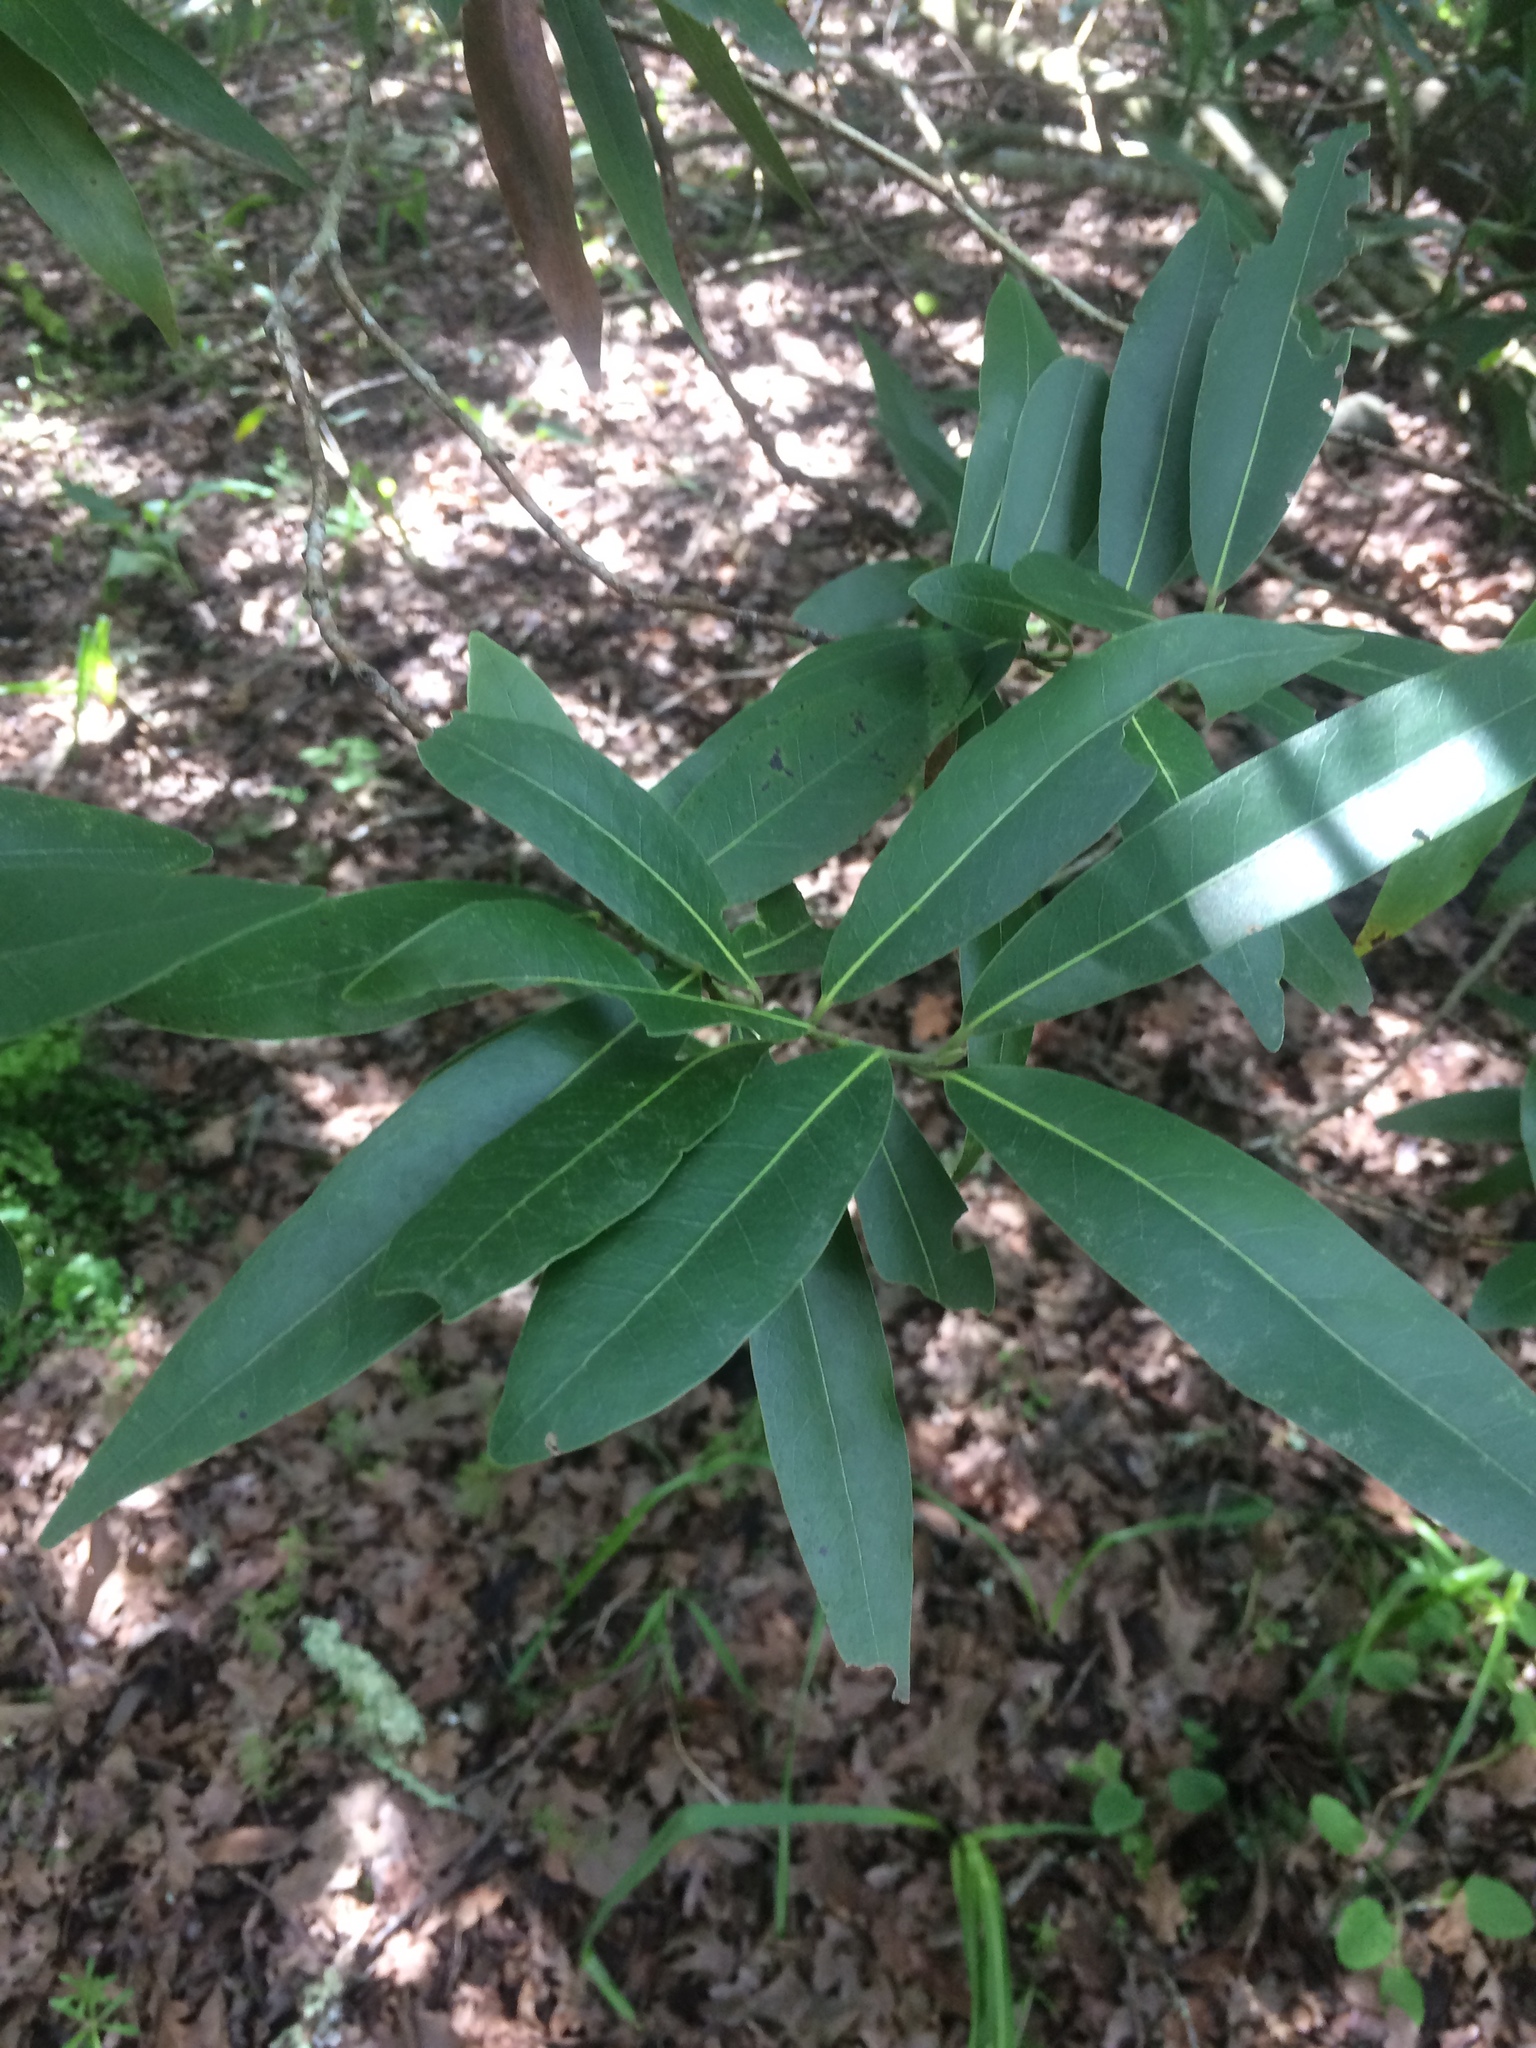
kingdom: Plantae
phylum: Tracheophyta
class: Magnoliopsida
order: Laurales
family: Lauraceae
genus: Umbellularia
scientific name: Umbellularia californica
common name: California bay
